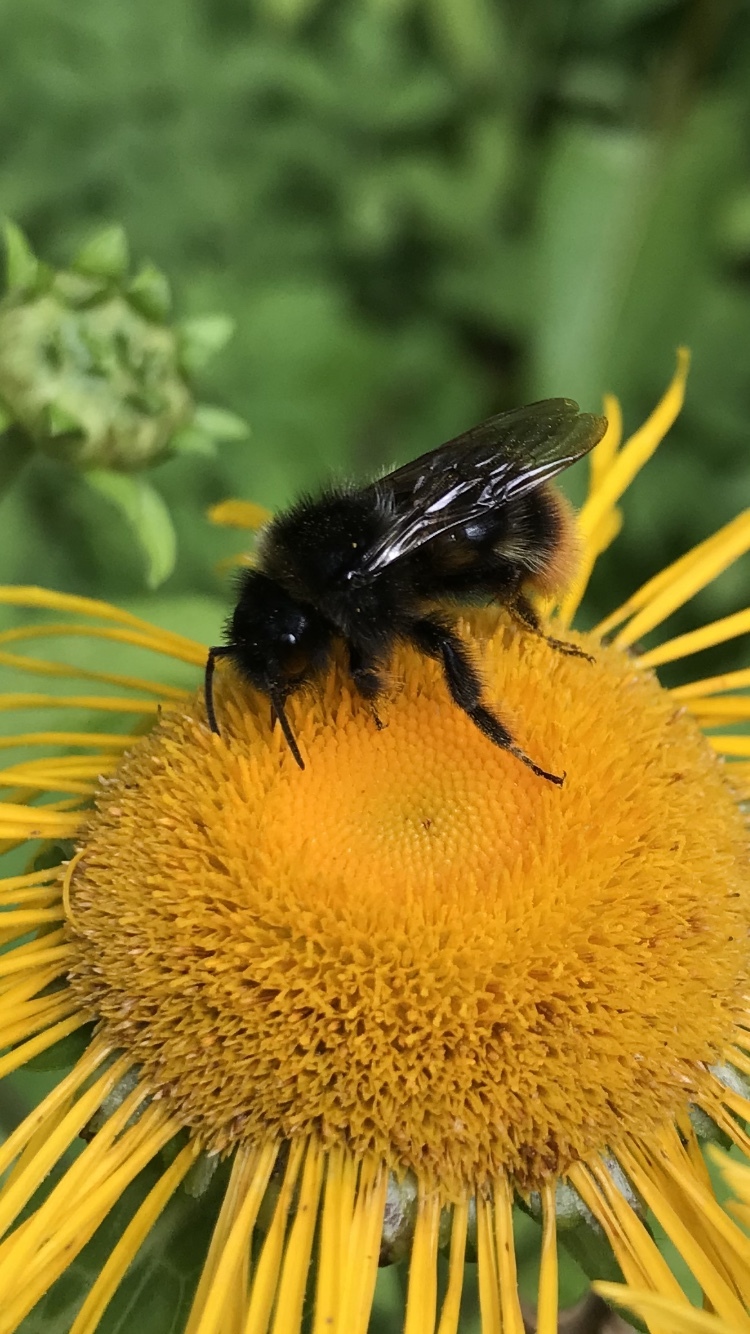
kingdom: Animalia
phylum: Arthropoda
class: Insecta
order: Hymenoptera
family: Apidae
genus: Bombus
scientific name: Bombus rupestris
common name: Hill cuckoo-bee
